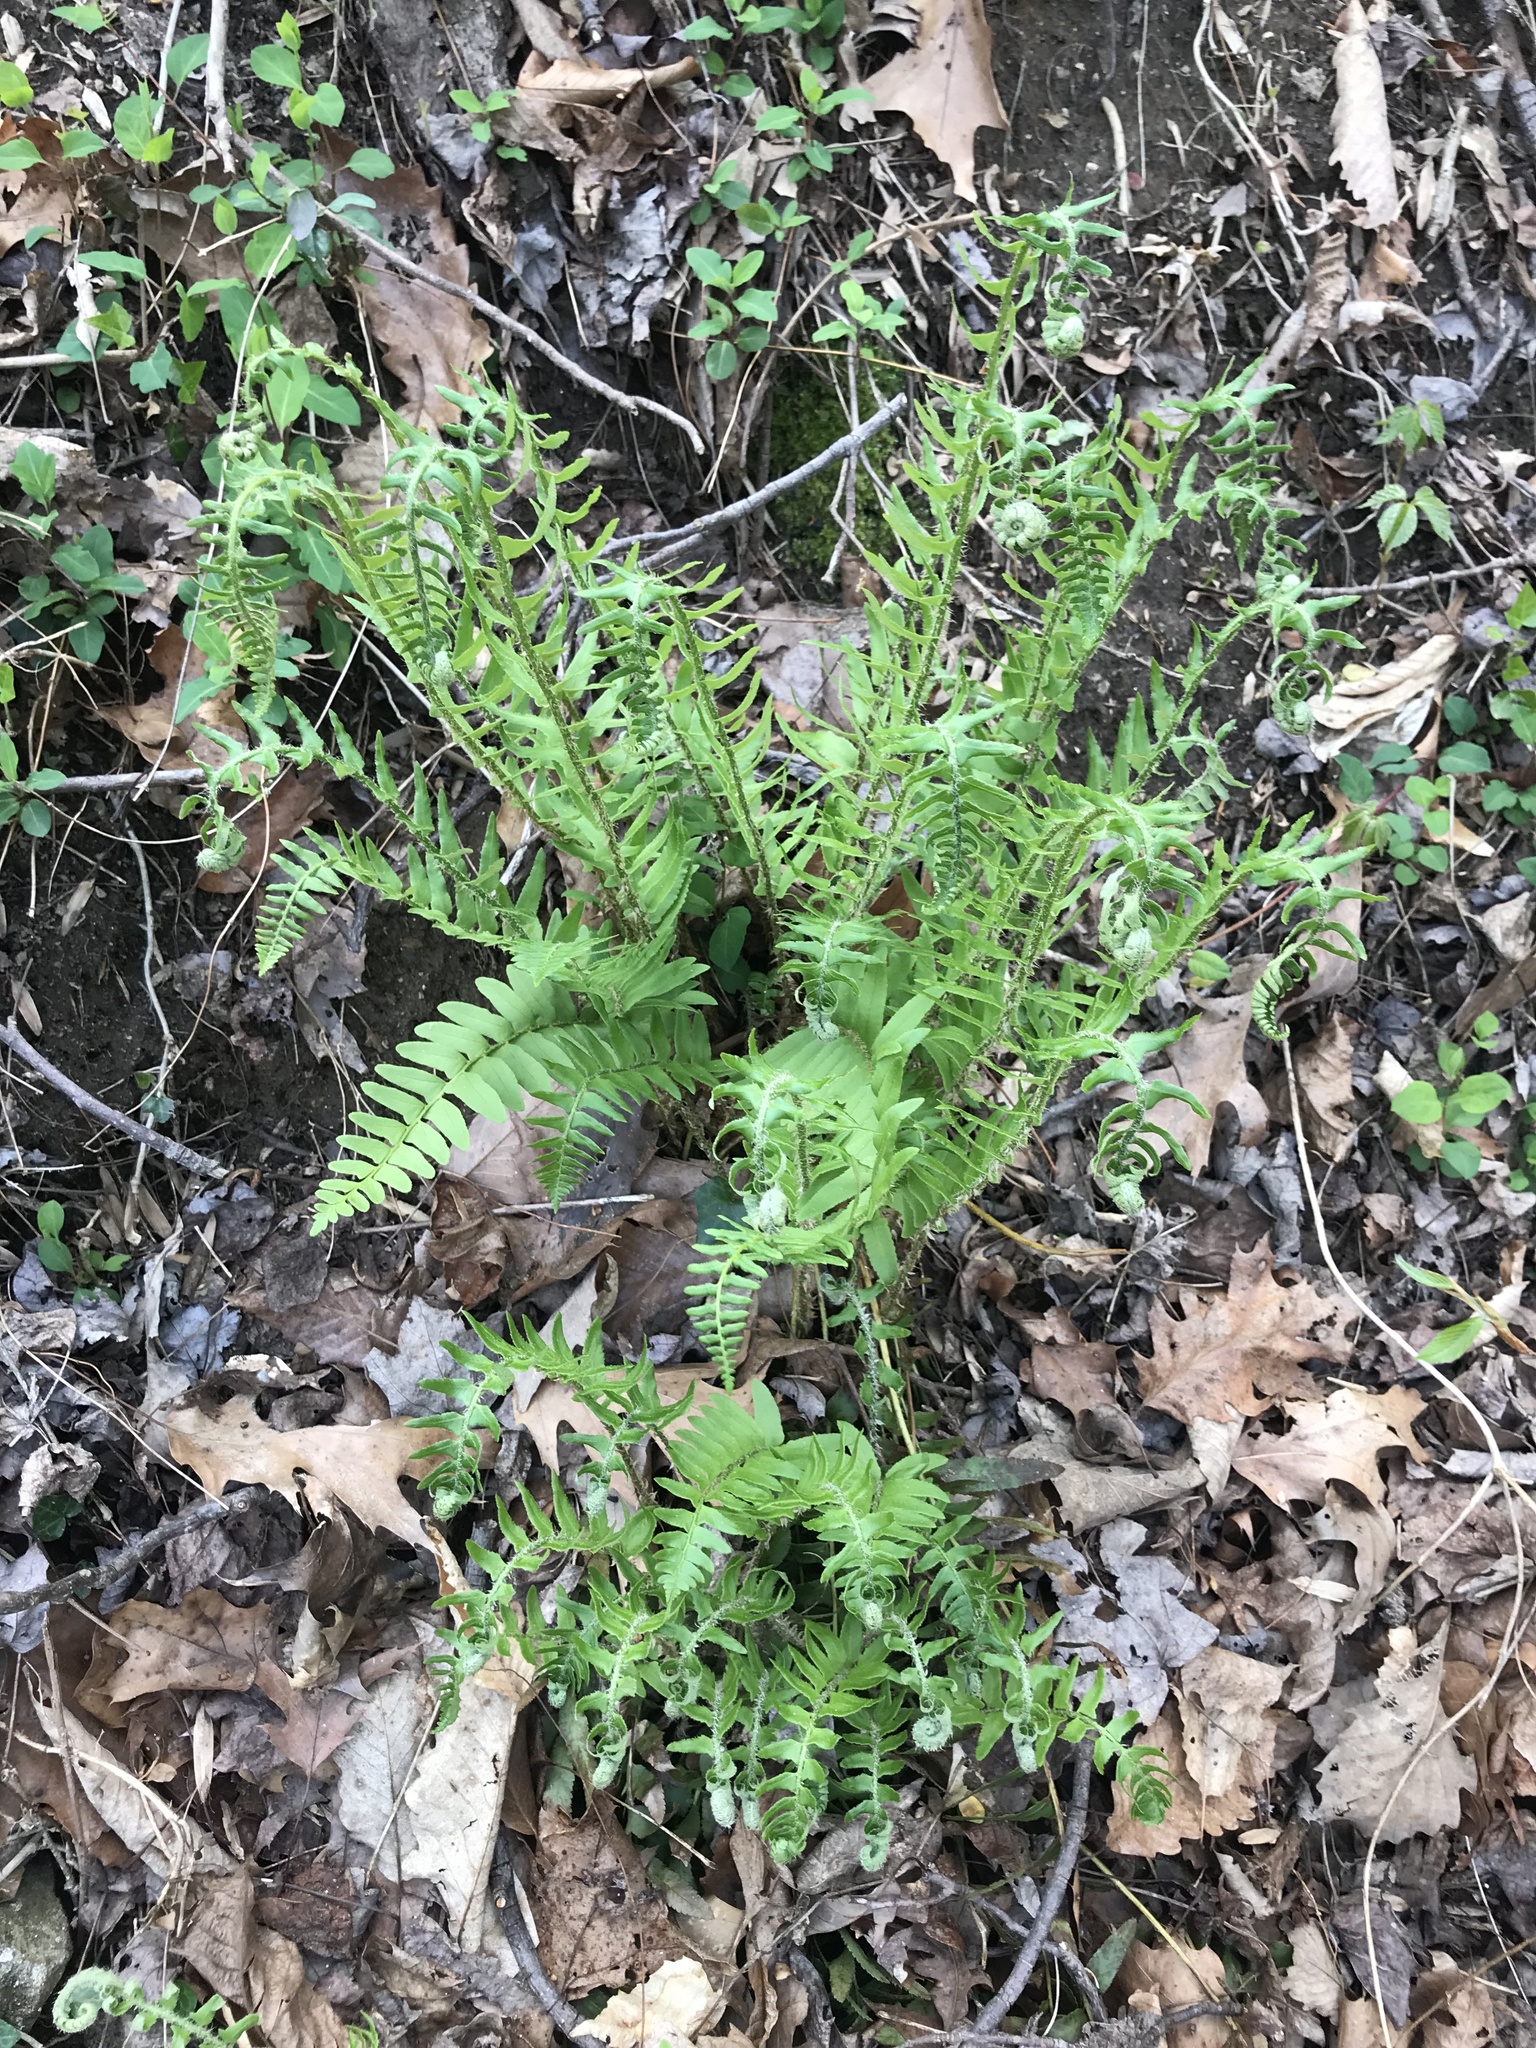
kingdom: Plantae
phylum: Tracheophyta
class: Polypodiopsida
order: Polypodiales
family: Dryopteridaceae
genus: Polystichum
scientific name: Polystichum acrostichoides
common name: Christmas fern
